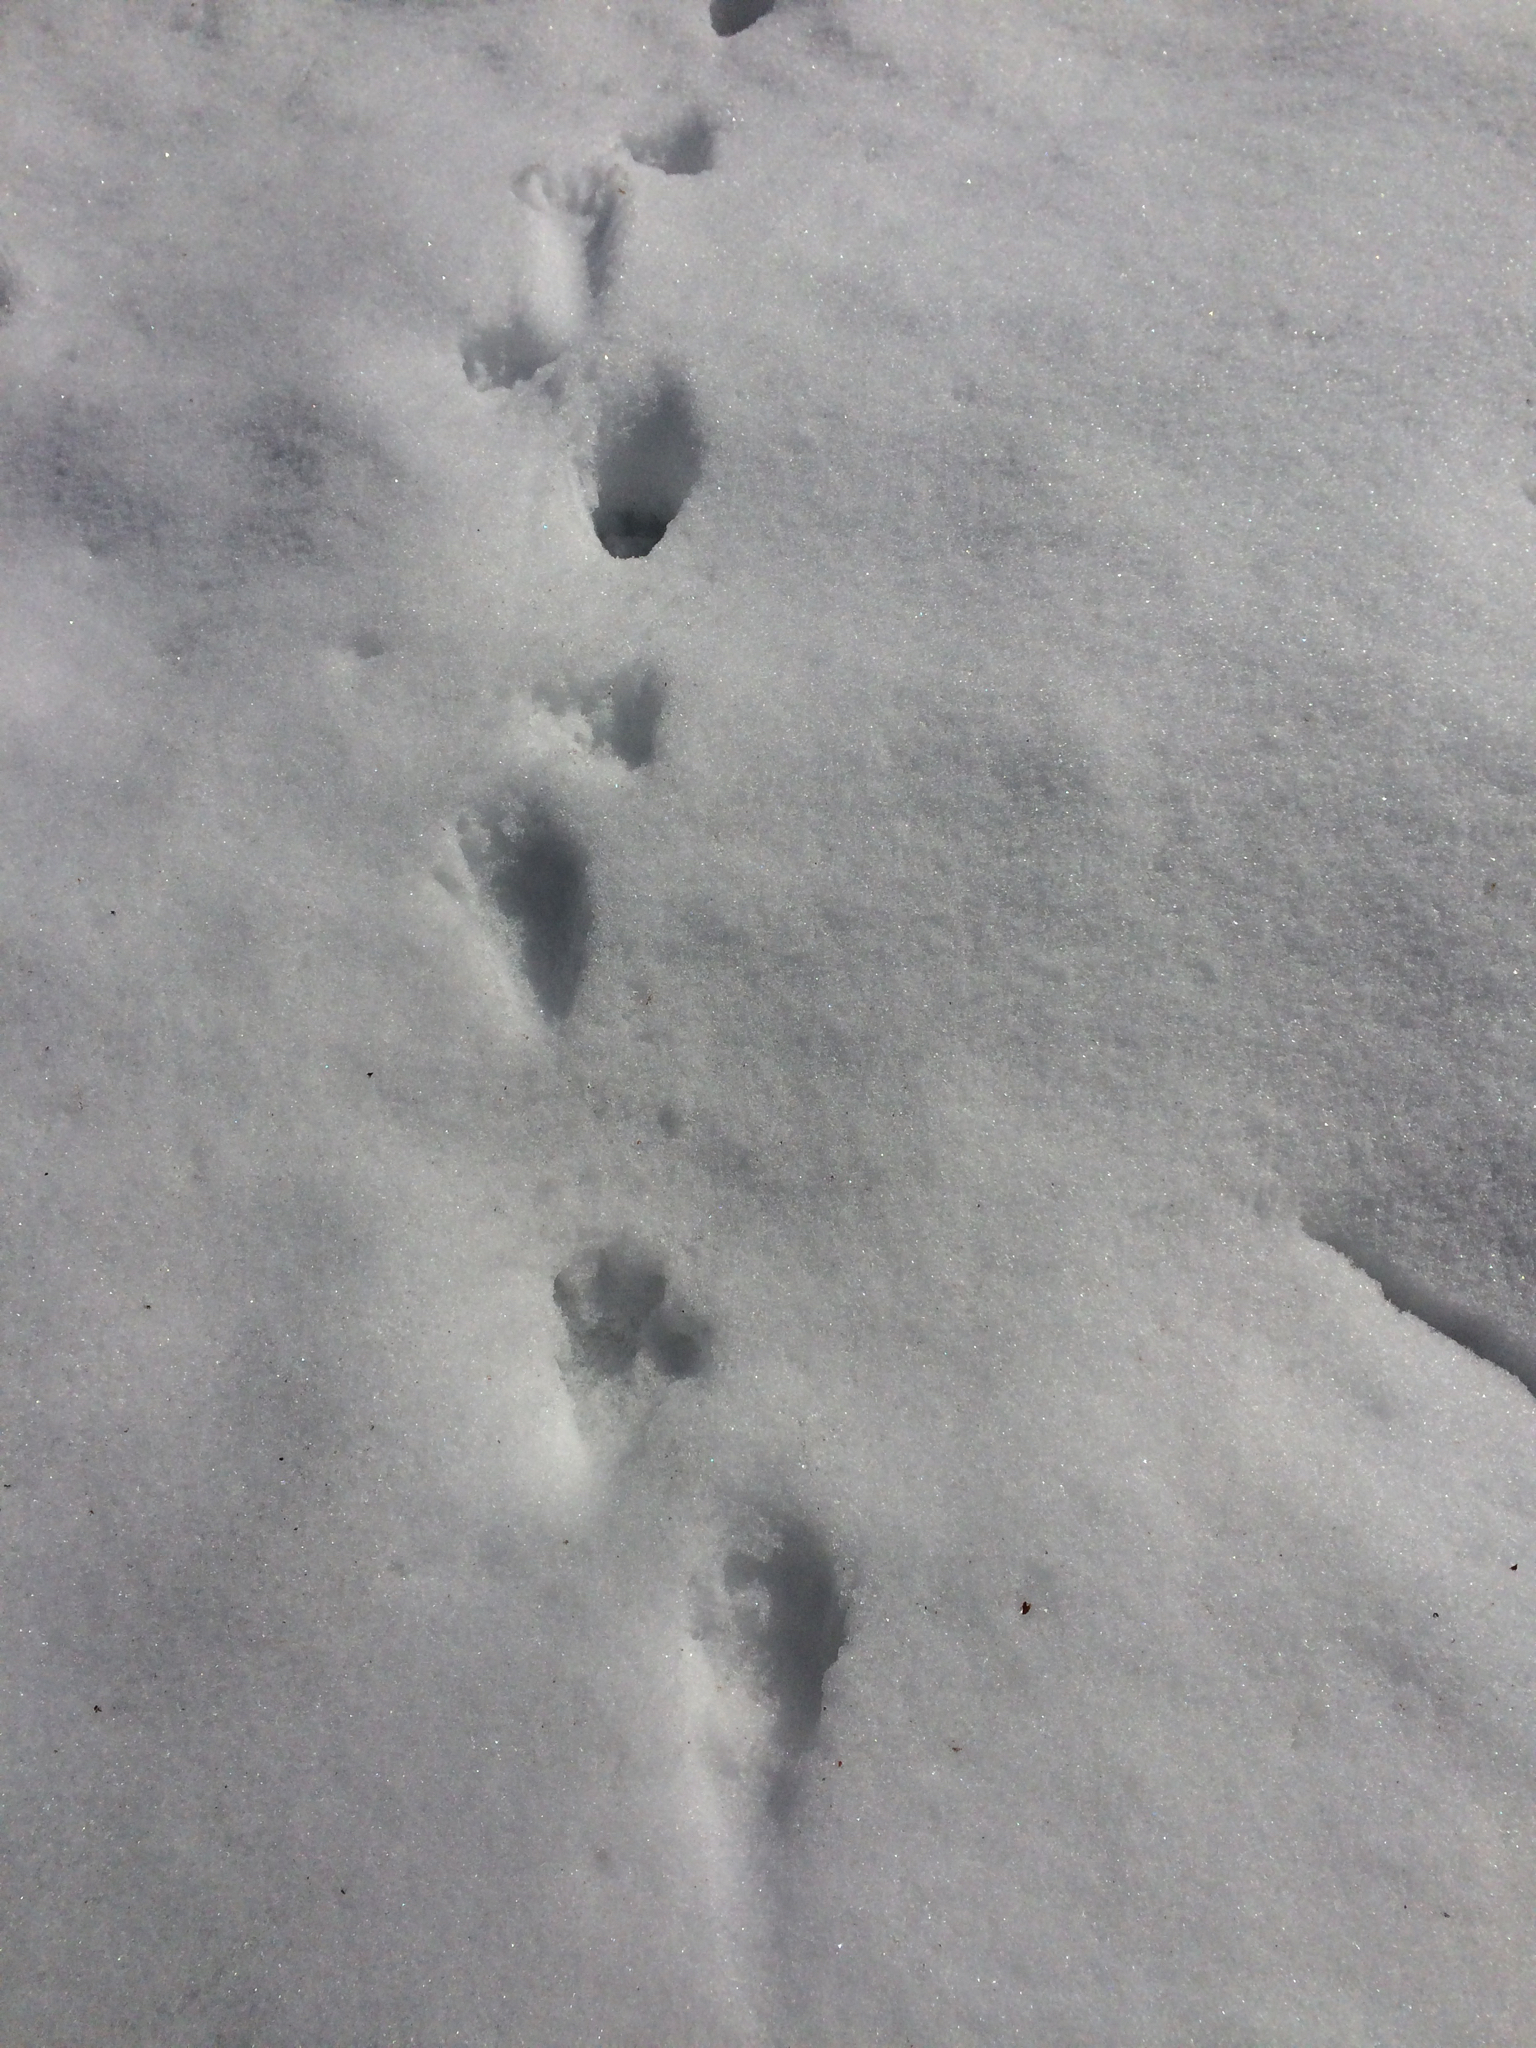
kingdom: Animalia
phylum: Chordata
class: Mammalia
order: Carnivora
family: Procyonidae
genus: Procyon
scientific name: Procyon lotor
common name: Raccoon
